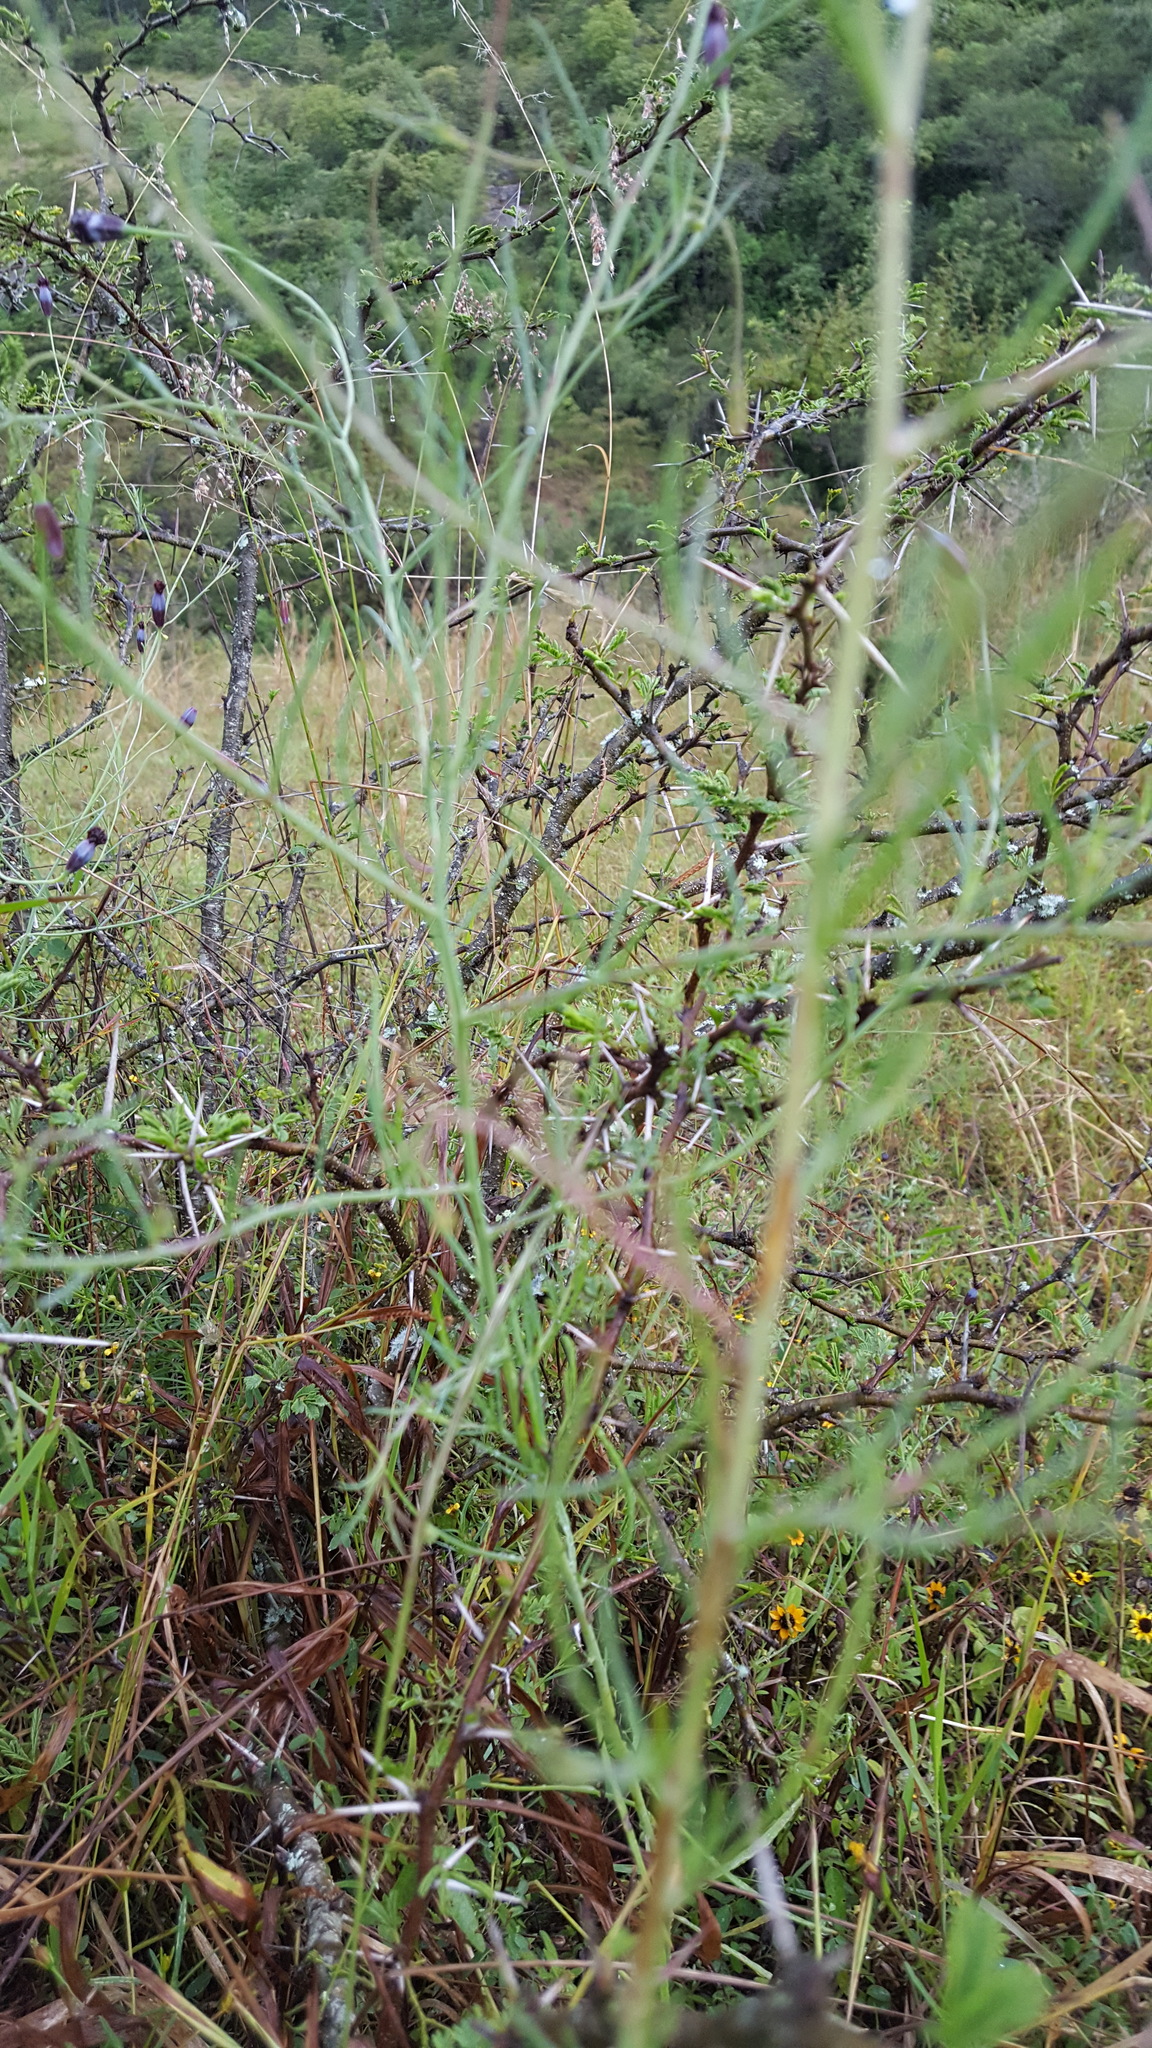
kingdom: Plantae
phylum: Tracheophyta
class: Magnoliopsida
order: Asterales
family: Asteraceae
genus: Porophyllum
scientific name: Porophyllum linaria
